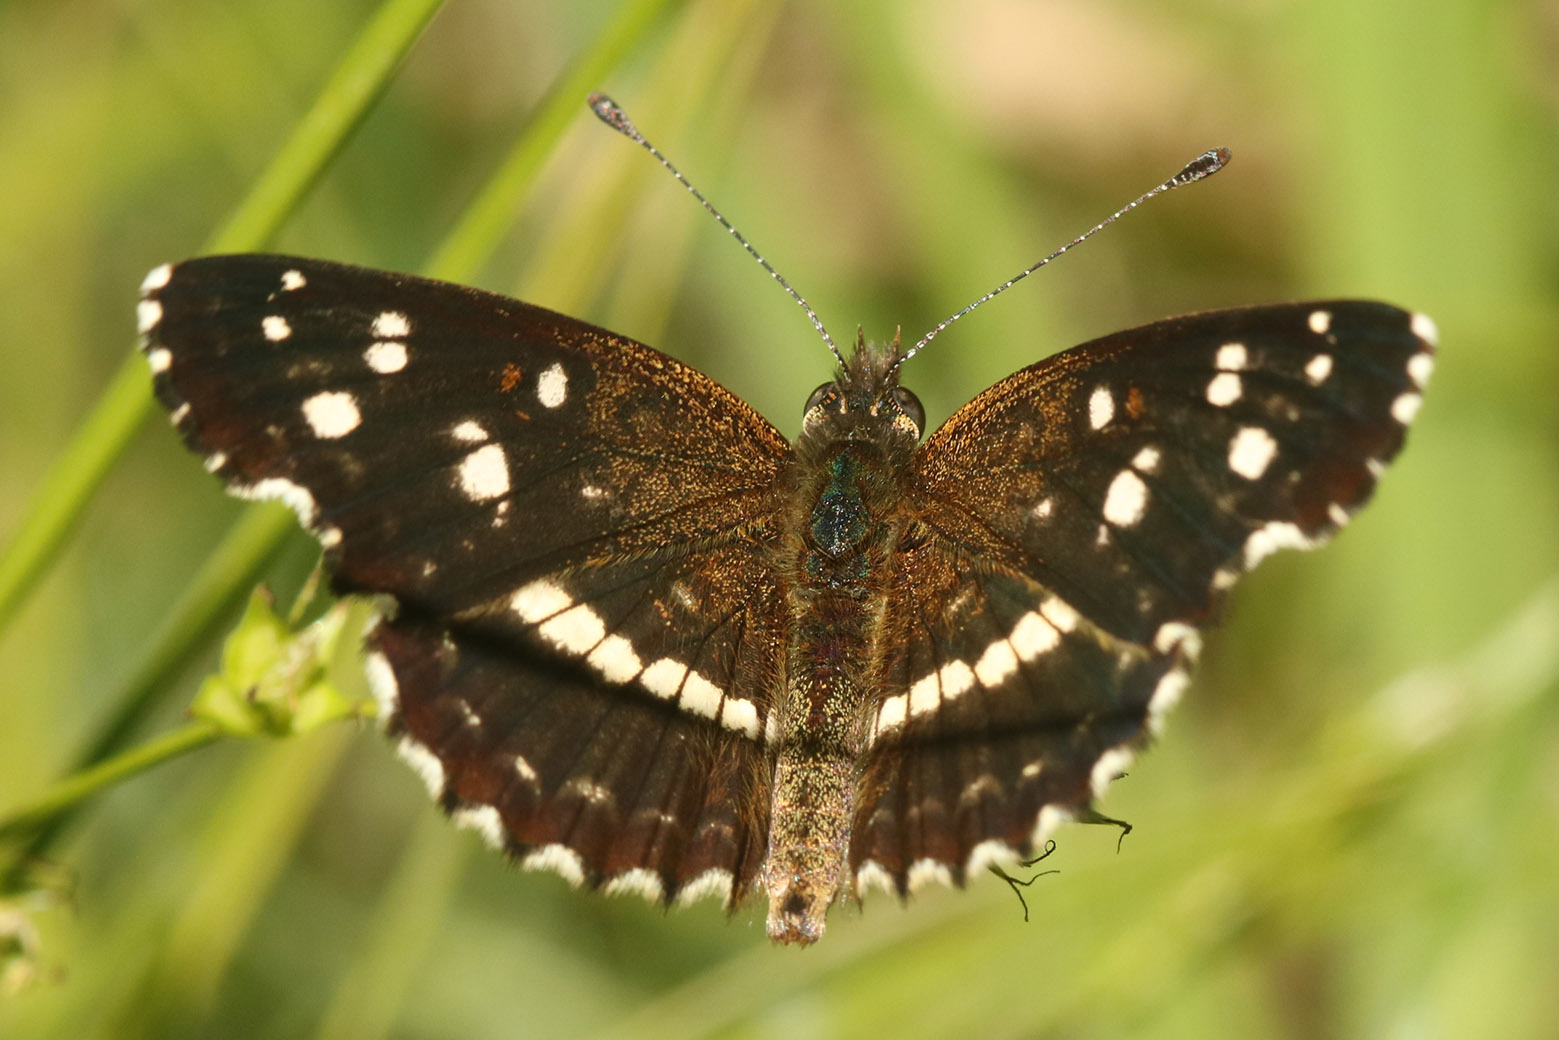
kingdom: Animalia
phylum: Arthropoda
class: Insecta
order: Lepidoptera
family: Nymphalidae
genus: Ortilia
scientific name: Ortilia ithra
